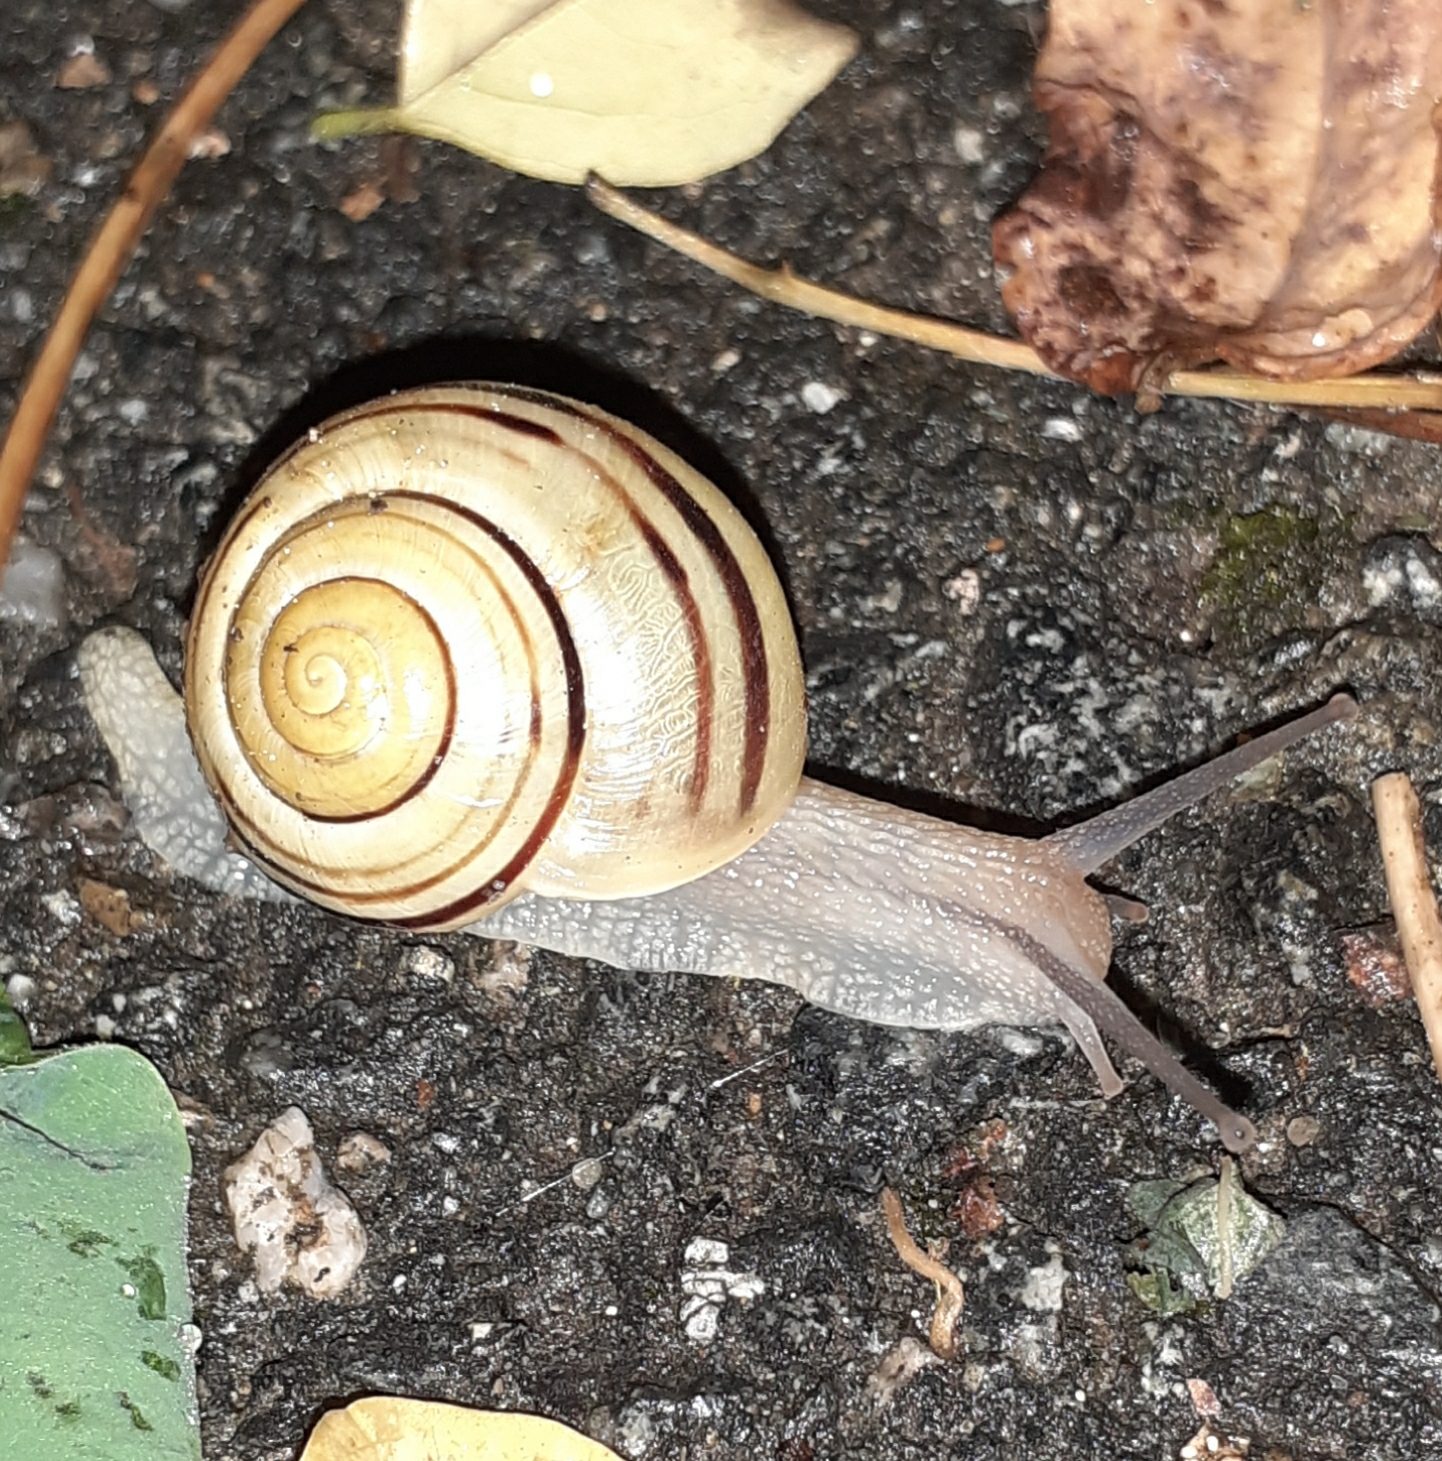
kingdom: Animalia
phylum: Mollusca
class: Gastropoda
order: Stylommatophora
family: Helicidae
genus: Cepaea
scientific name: Cepaea
